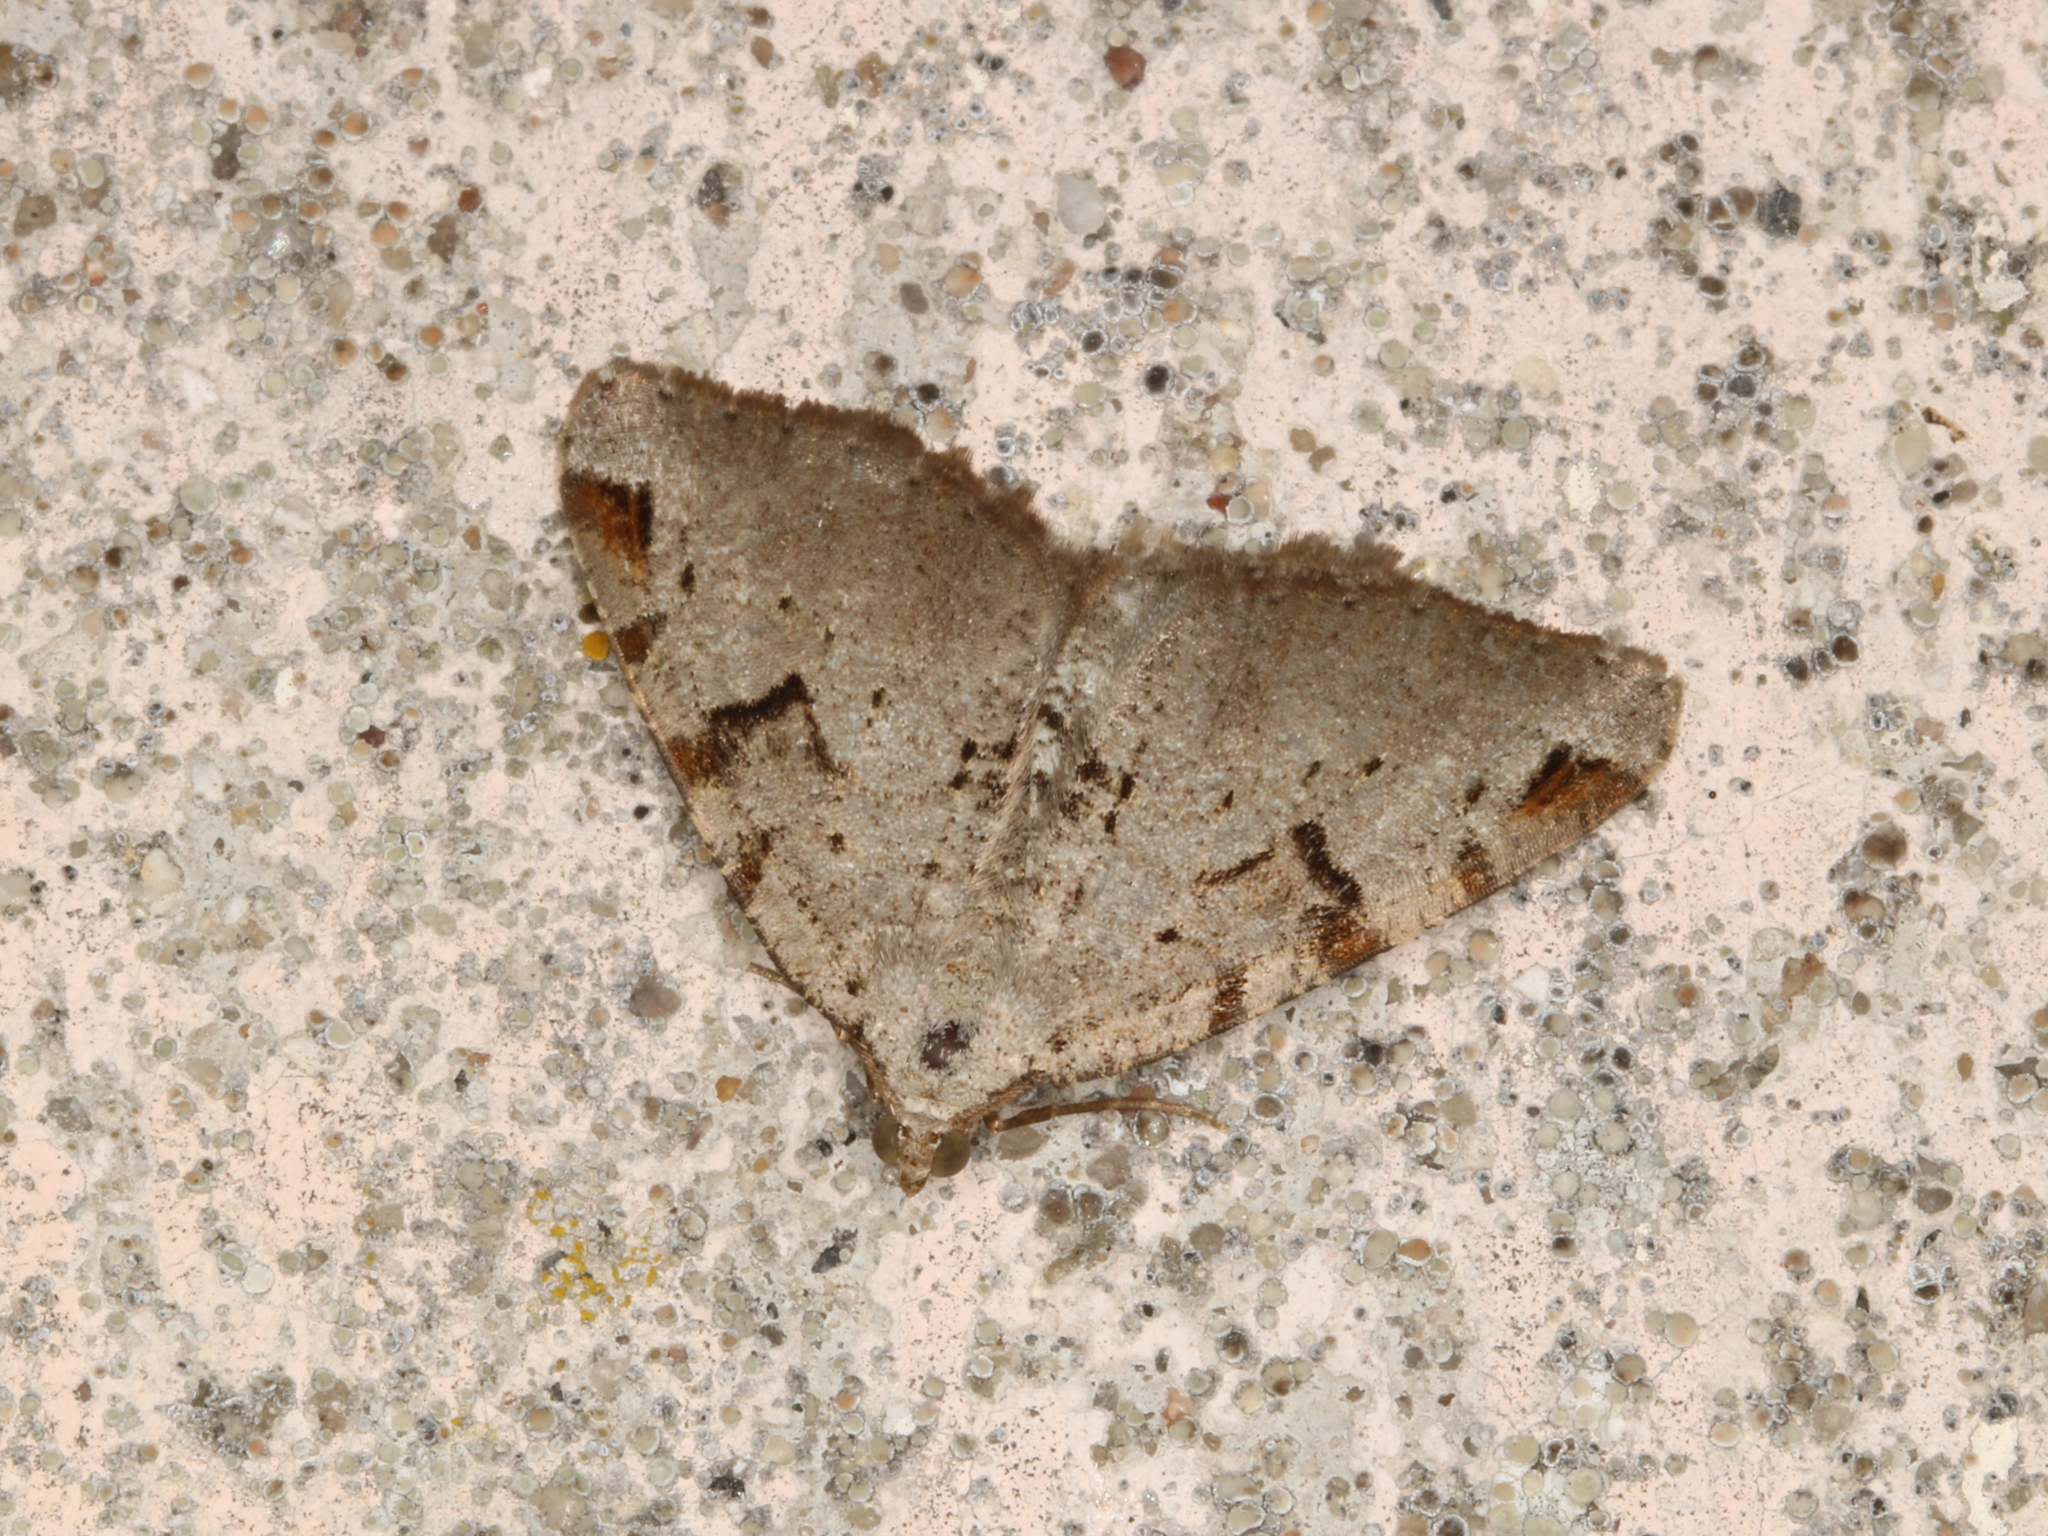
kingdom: Animalia
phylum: Arthropoda
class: Insecta
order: Lepidoptera
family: Geometridae
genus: Macaria
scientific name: Macaria wauaria
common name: V-moth
